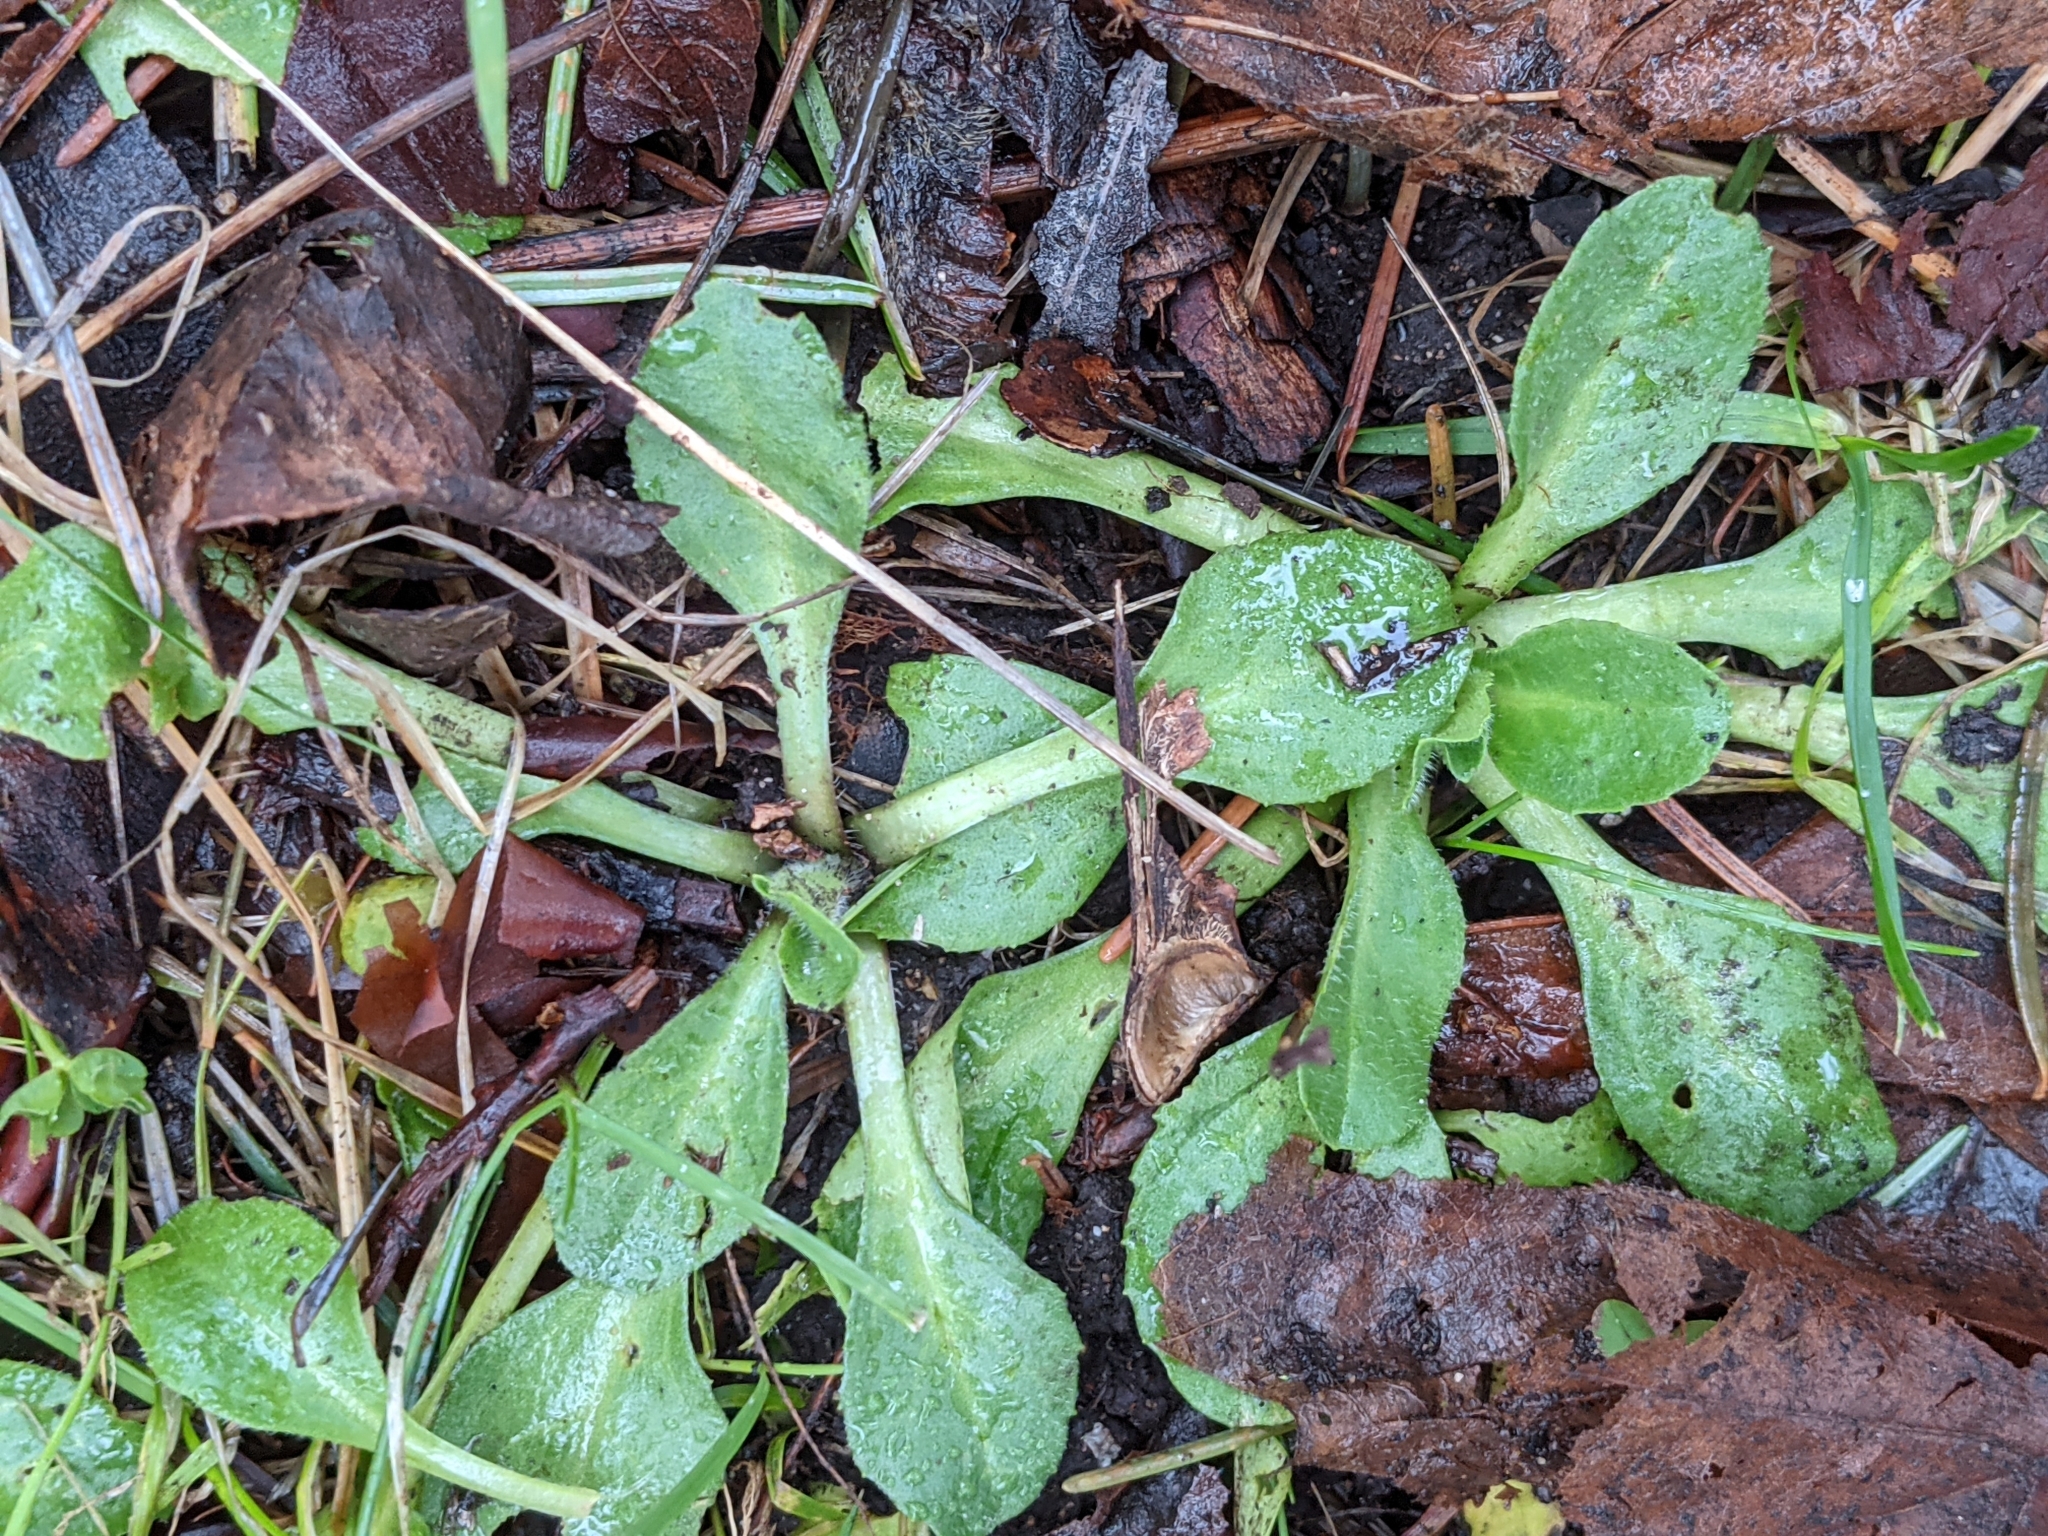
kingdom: Plantae
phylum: Tracheophyta
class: Magnoliopsida
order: Asterales
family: Asteraceae
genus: Bellis
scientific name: Bellis perennis
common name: Lawndaisy
